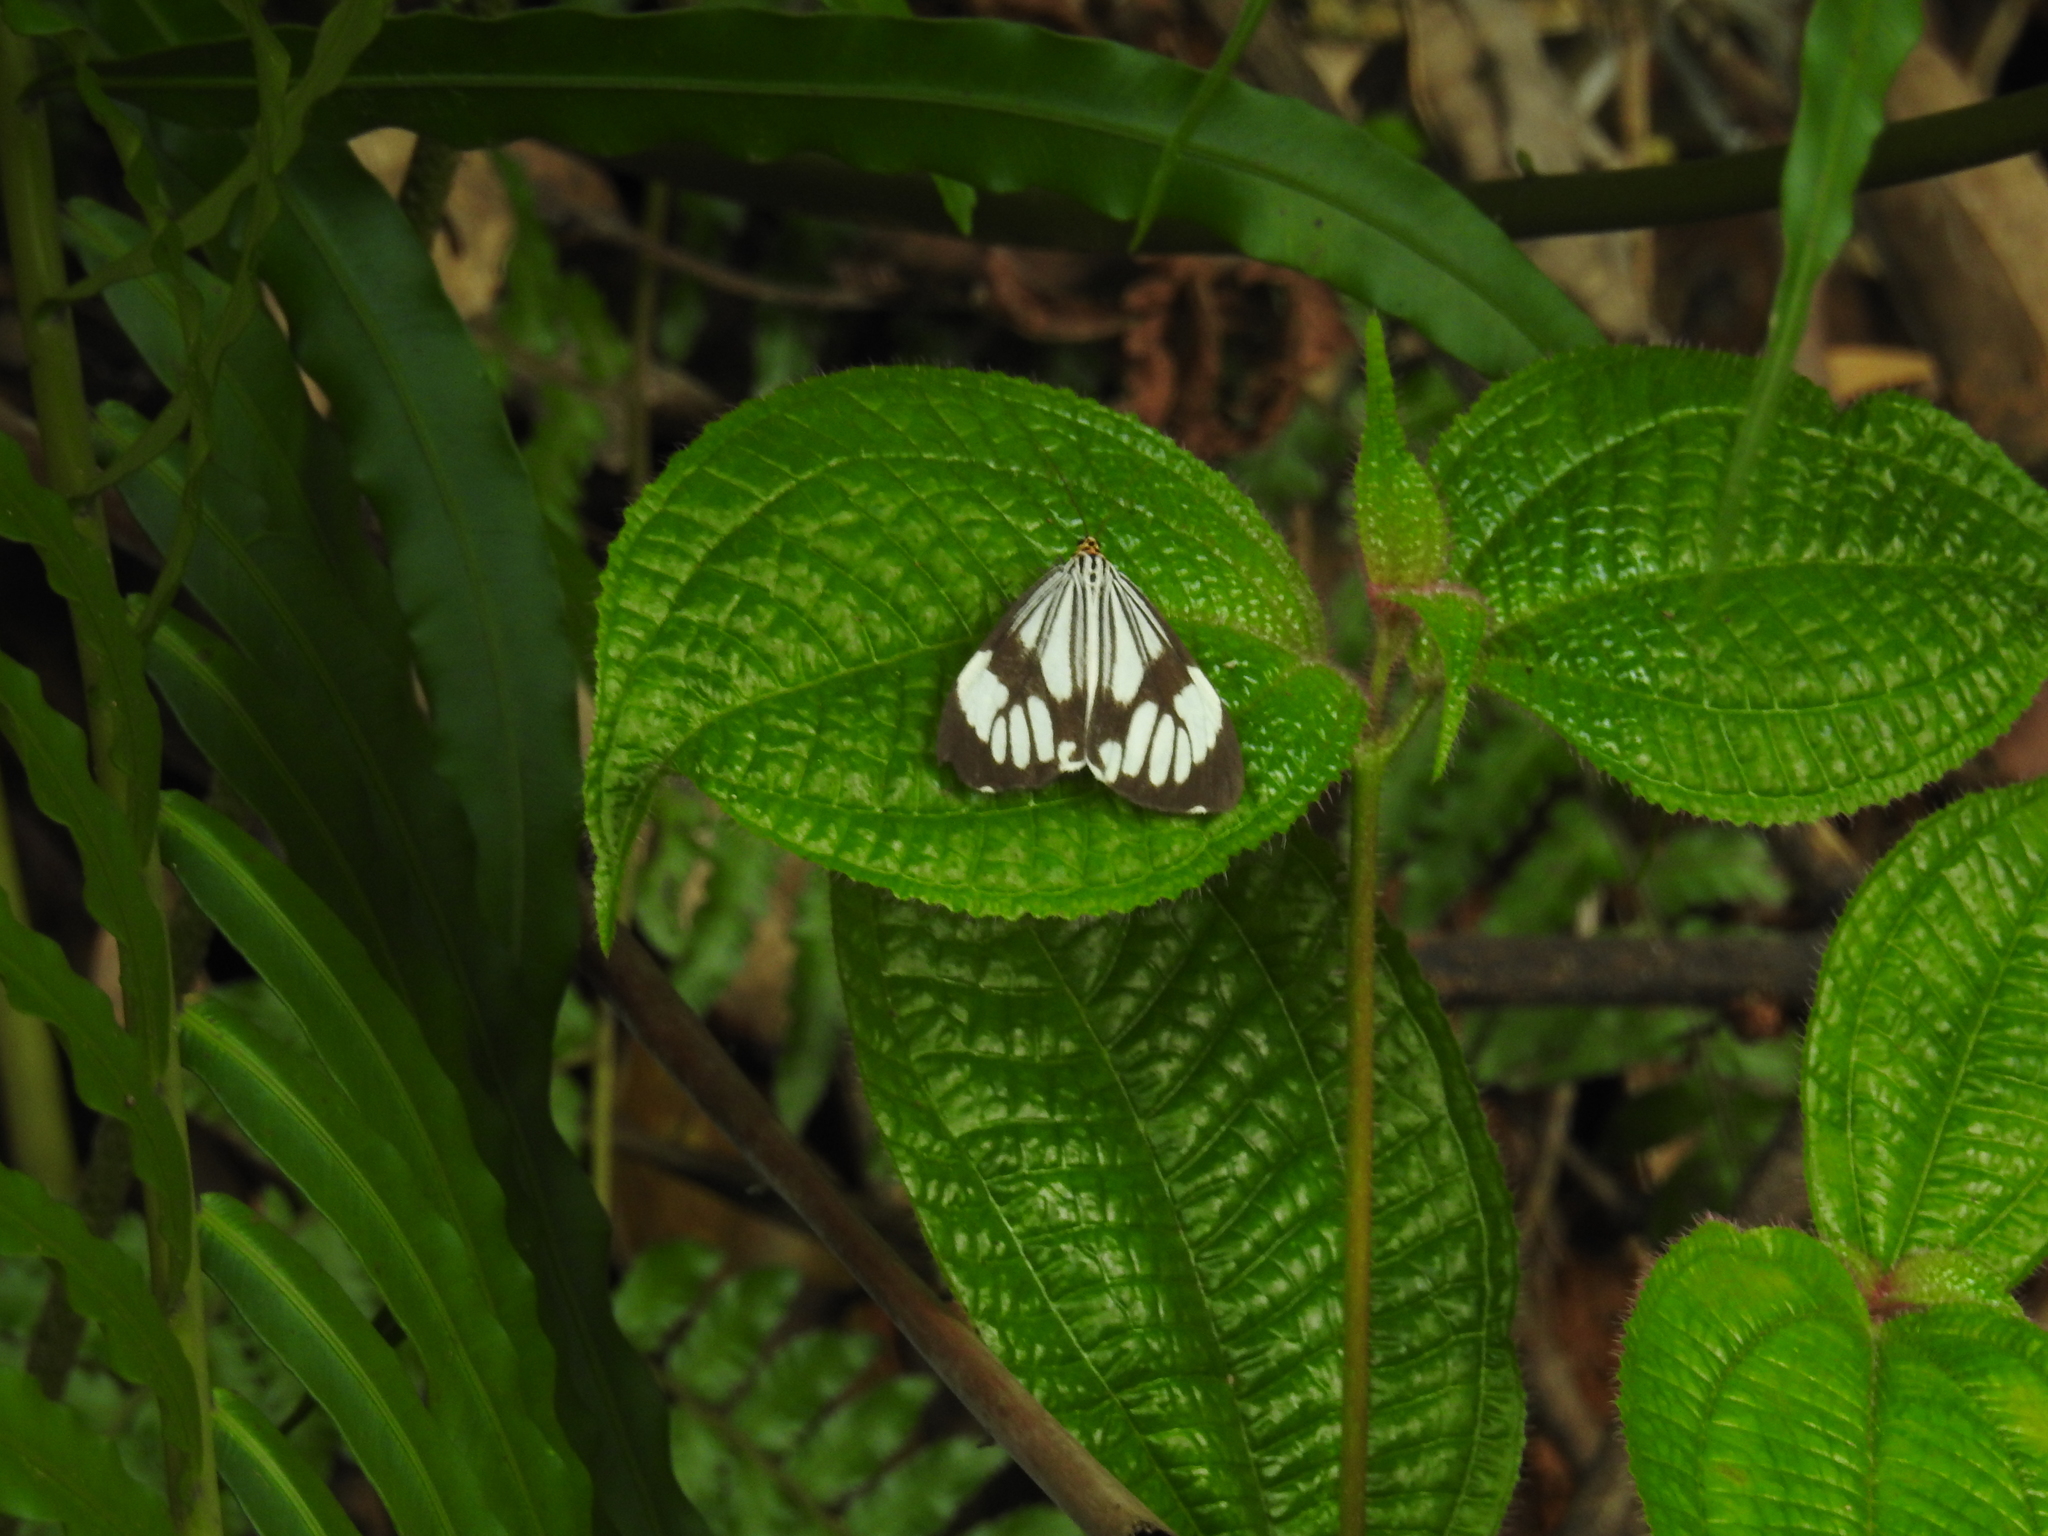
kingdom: Animalia
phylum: Arthropoda
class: Insecta
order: Lepidoptera
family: Erebidae
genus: Nyctemera
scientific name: Nyctemera coleta
